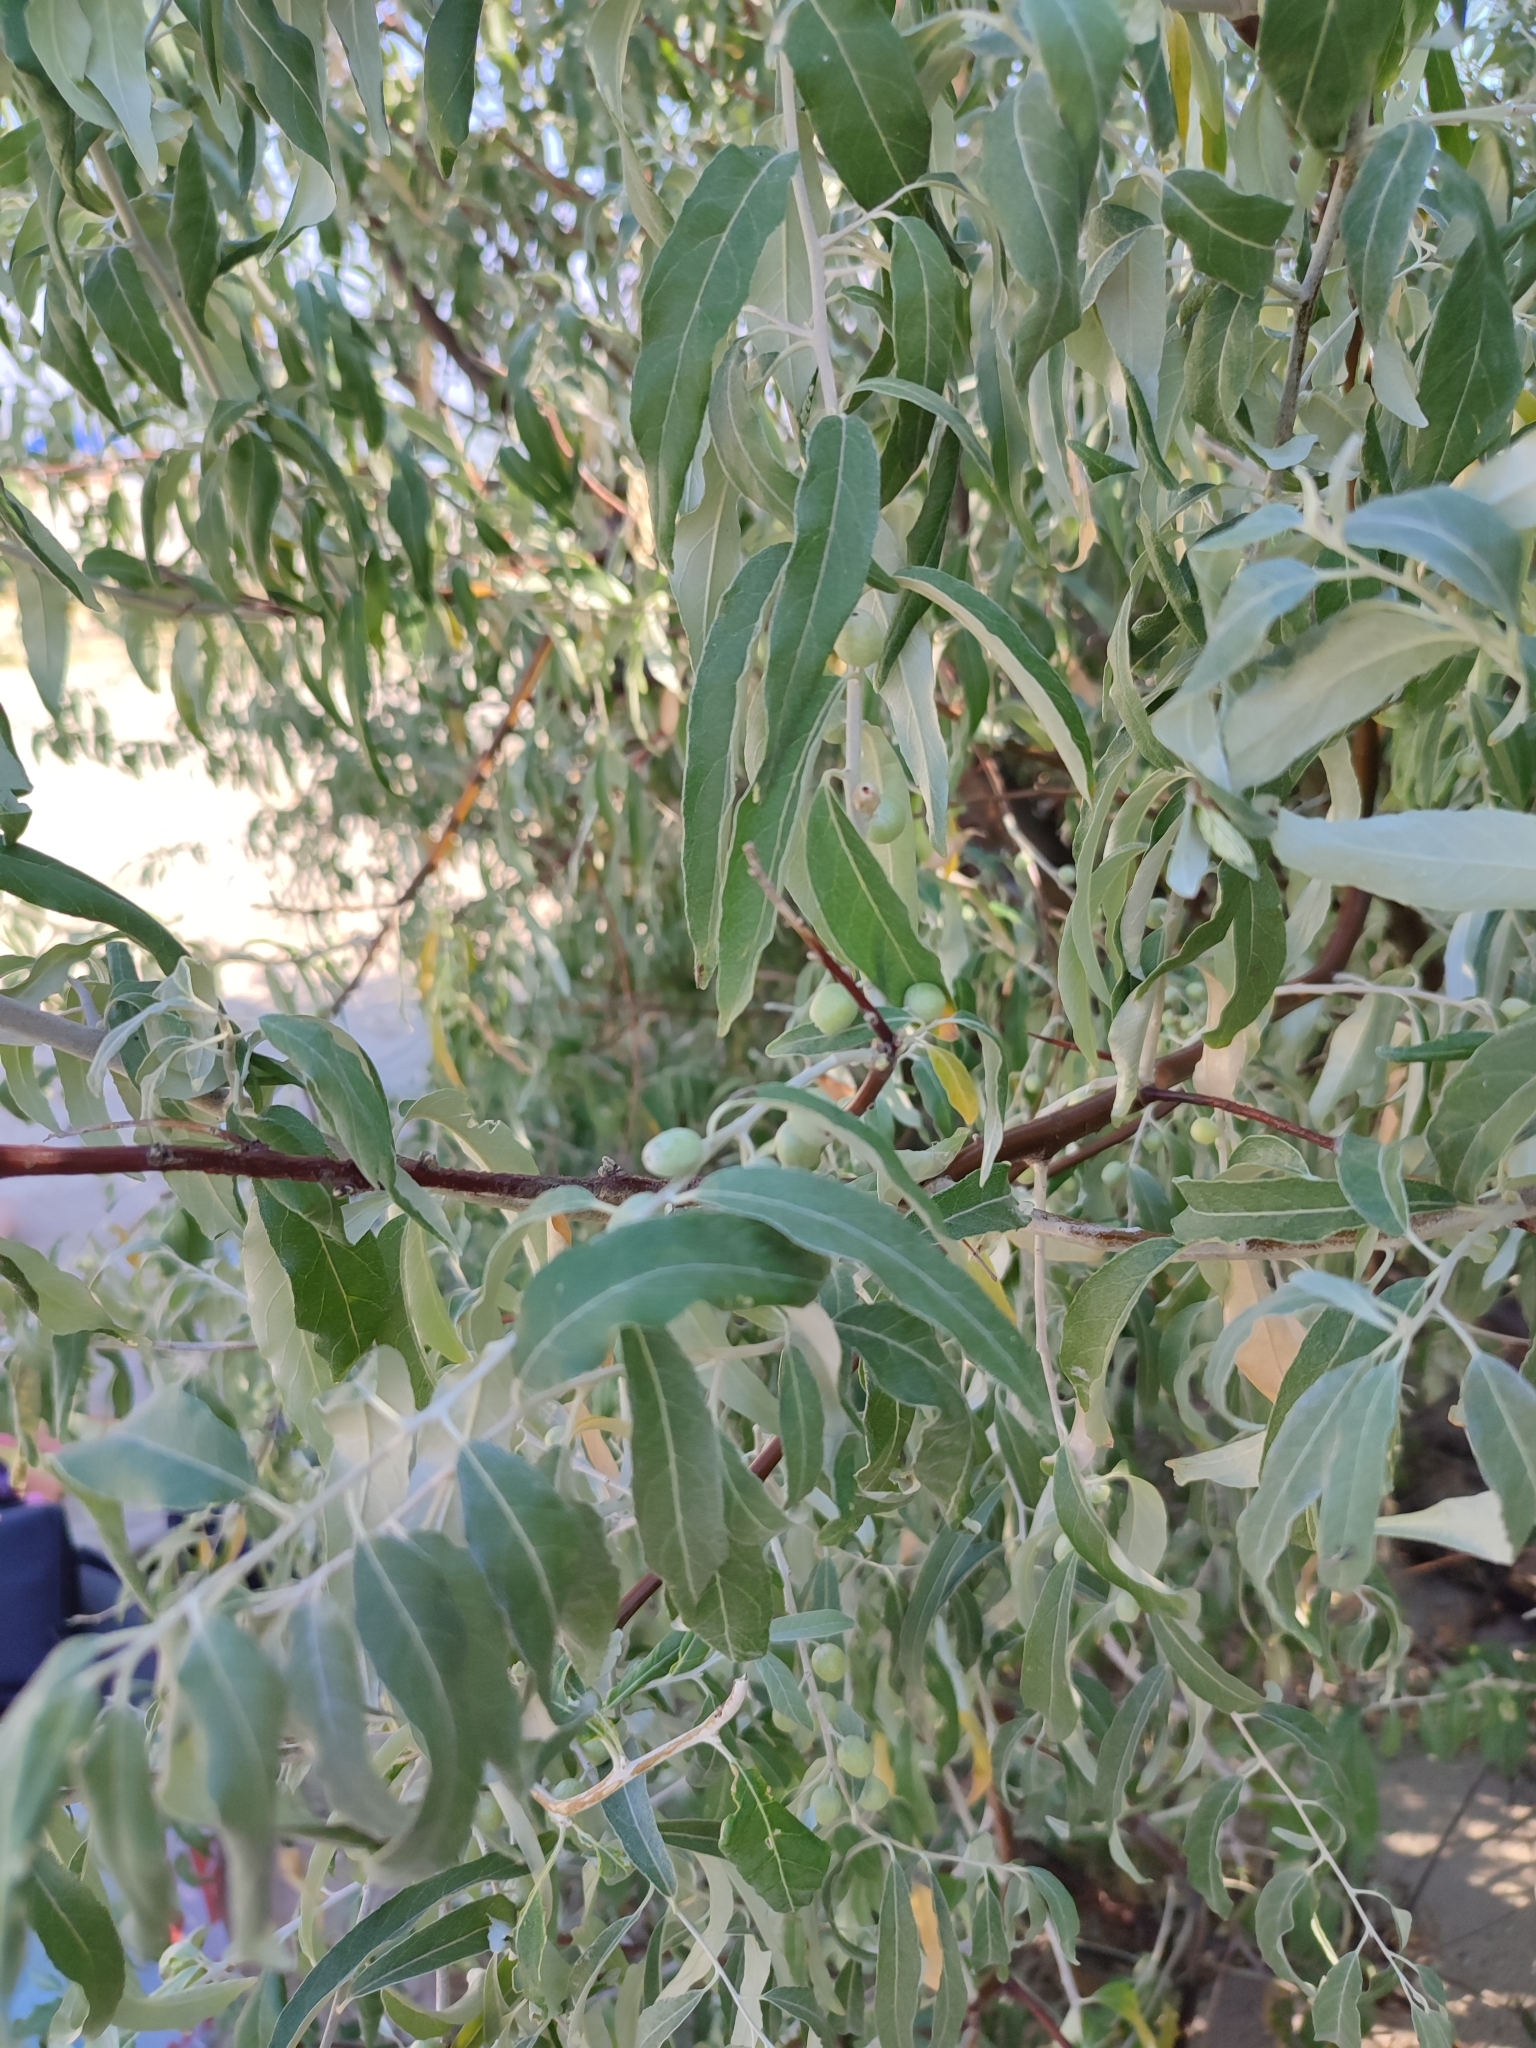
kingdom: Plantae
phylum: Tracheophyta
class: Magnoliopsida
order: Rosales
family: Elaeagnaceae
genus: Elaeagnus
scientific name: Elaeagnus angustifolia
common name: Russian olive
